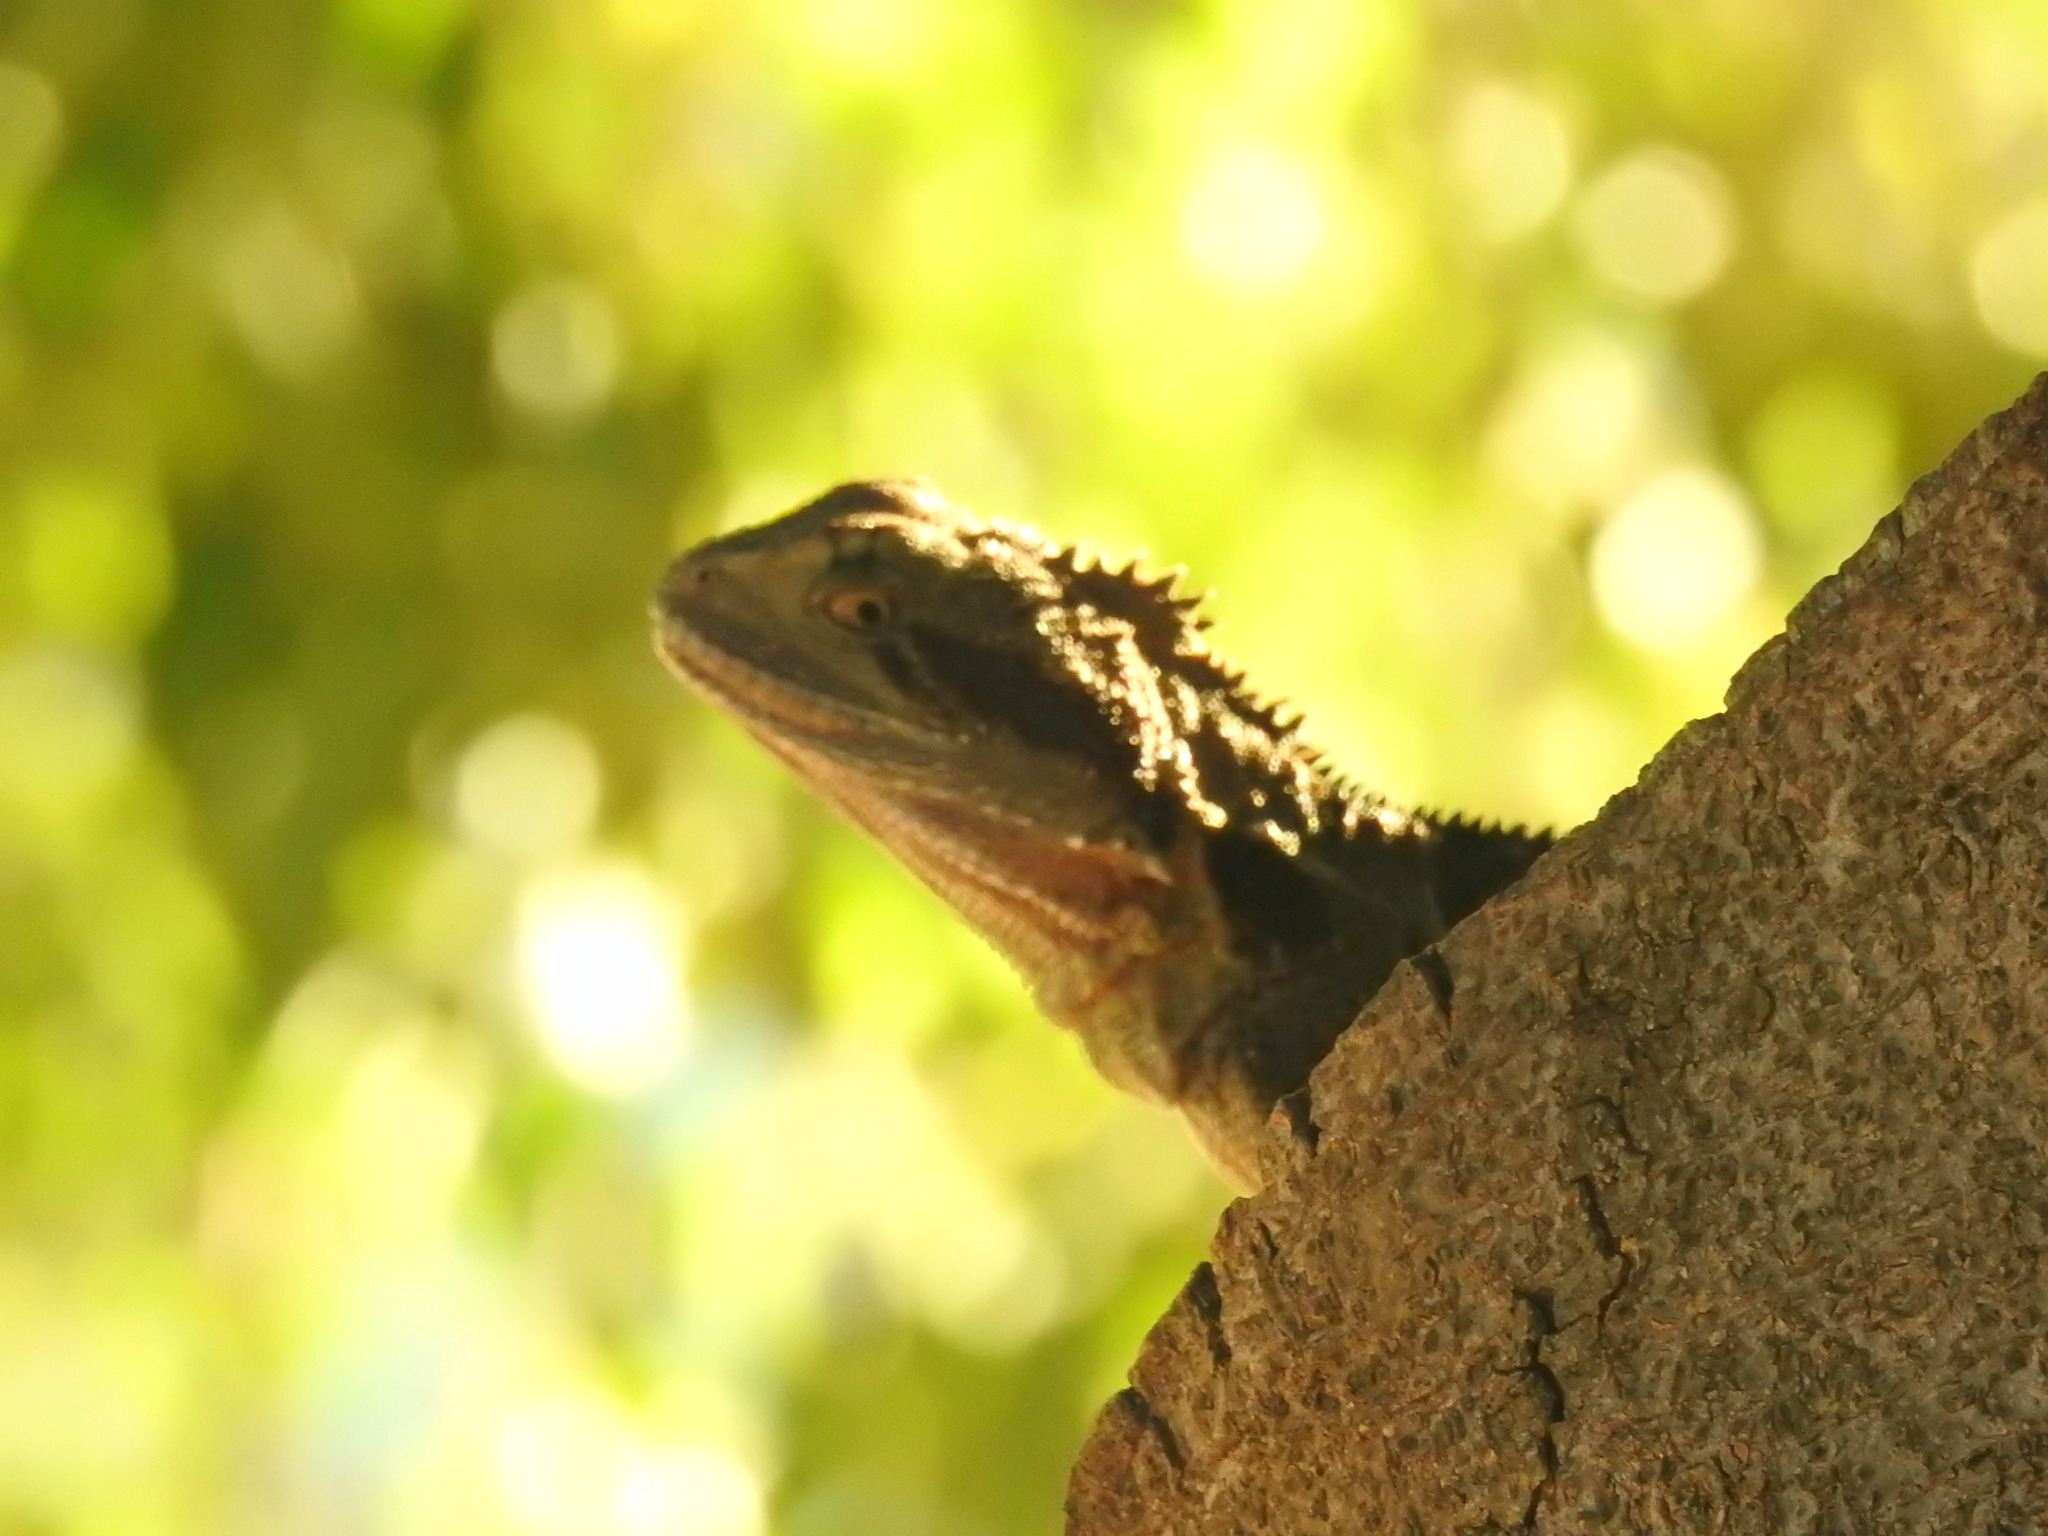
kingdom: Animalia
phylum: Chordata
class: Squamata
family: Agamidae
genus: Intellagama
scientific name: Intellagama lesueurii
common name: Eastern water dragon
